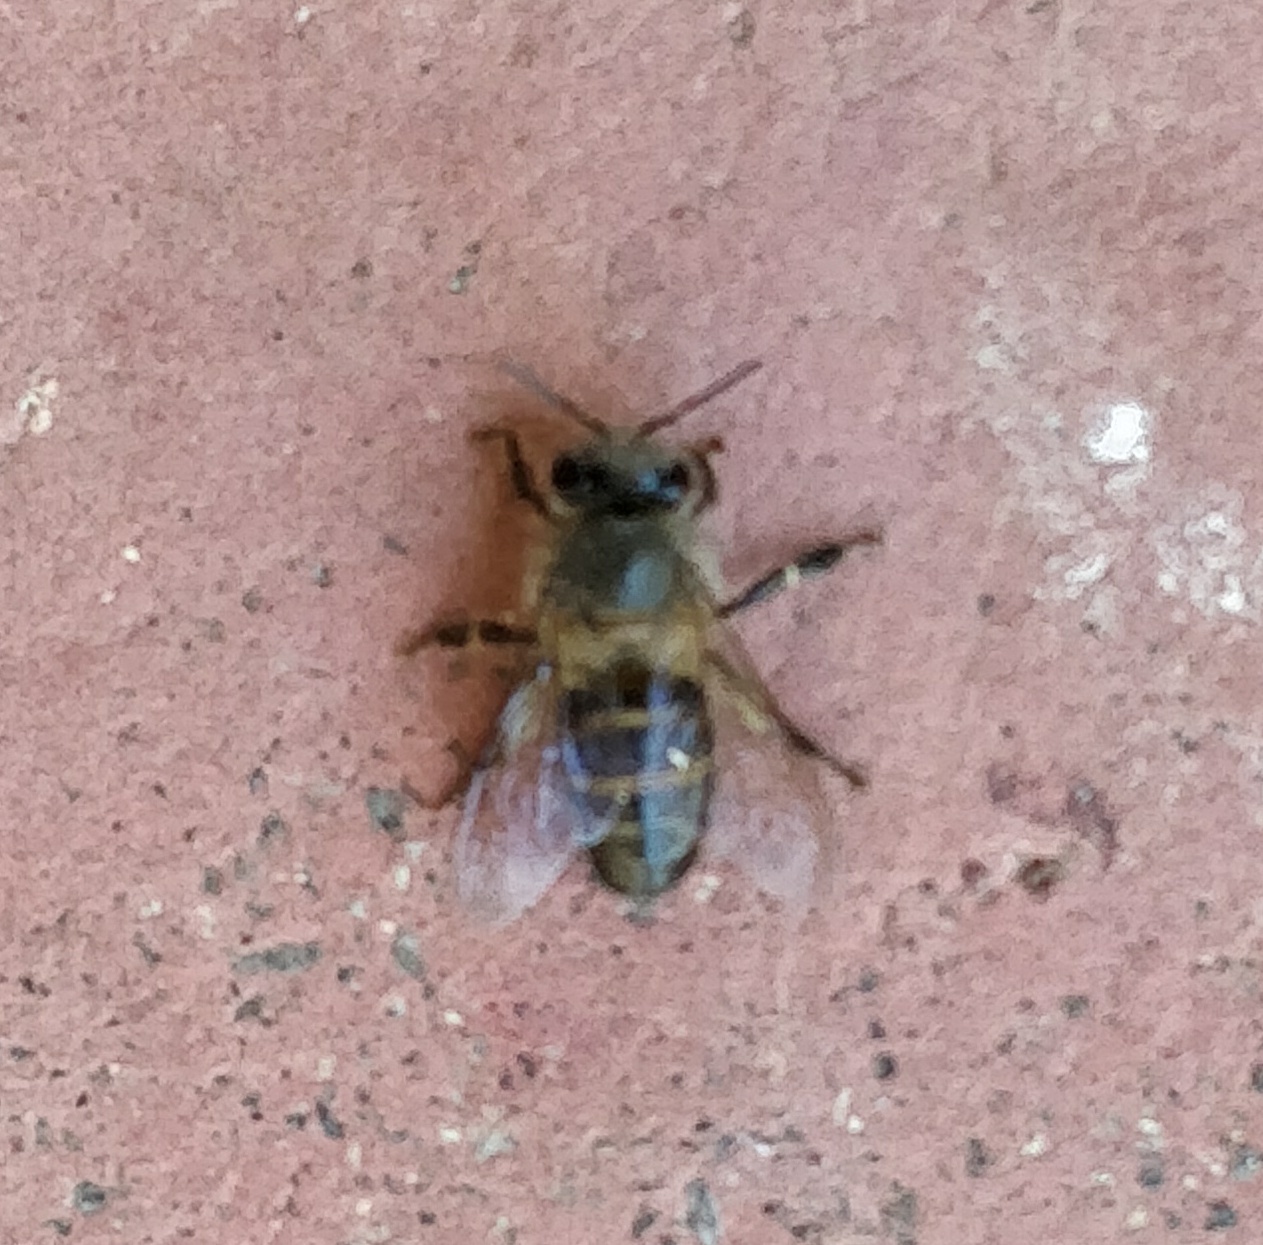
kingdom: Animalia
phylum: Arthropoda
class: Insecta
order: Hymenoptera
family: Apidae
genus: Apis
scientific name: Apis cerana
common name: Honey bee
